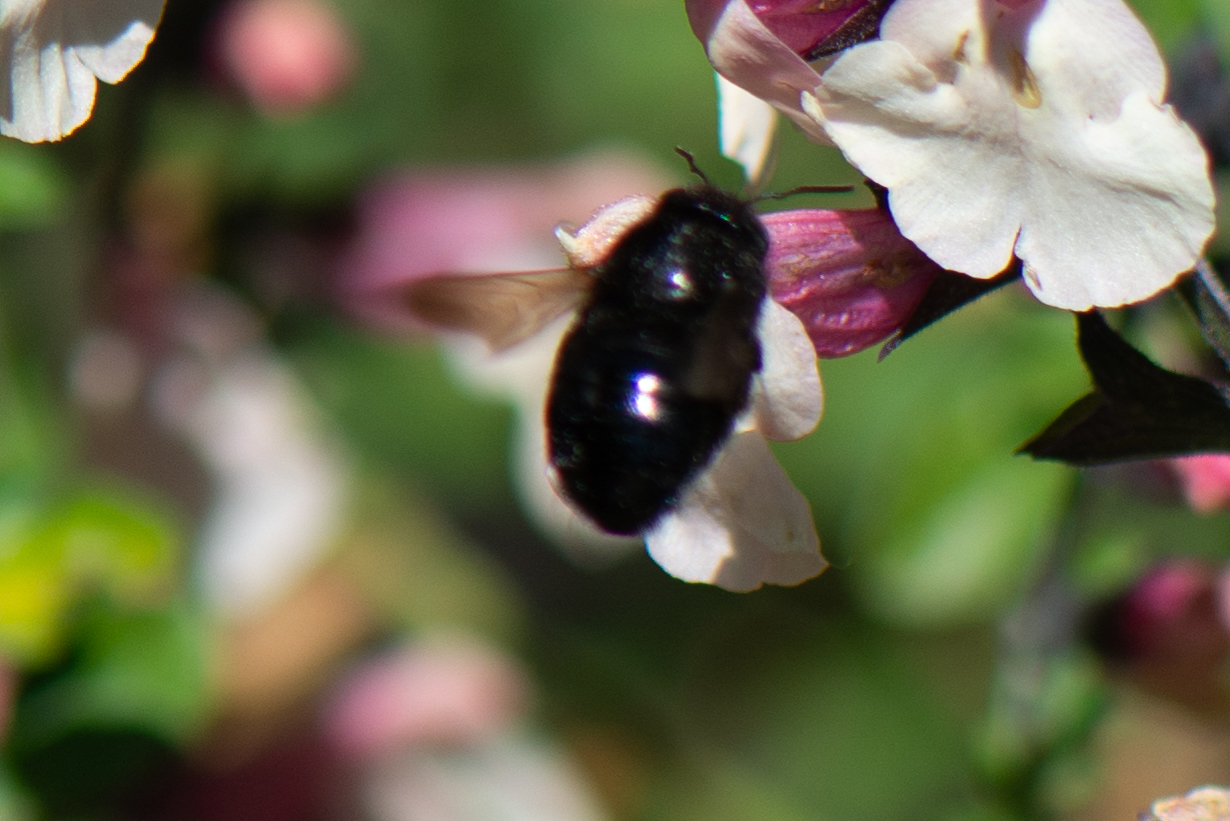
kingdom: Animalia
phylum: Arthropoda
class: Insecta
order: Hymenoptera
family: Apidae
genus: Xylocopa
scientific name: Xylocopa tabaniformis
